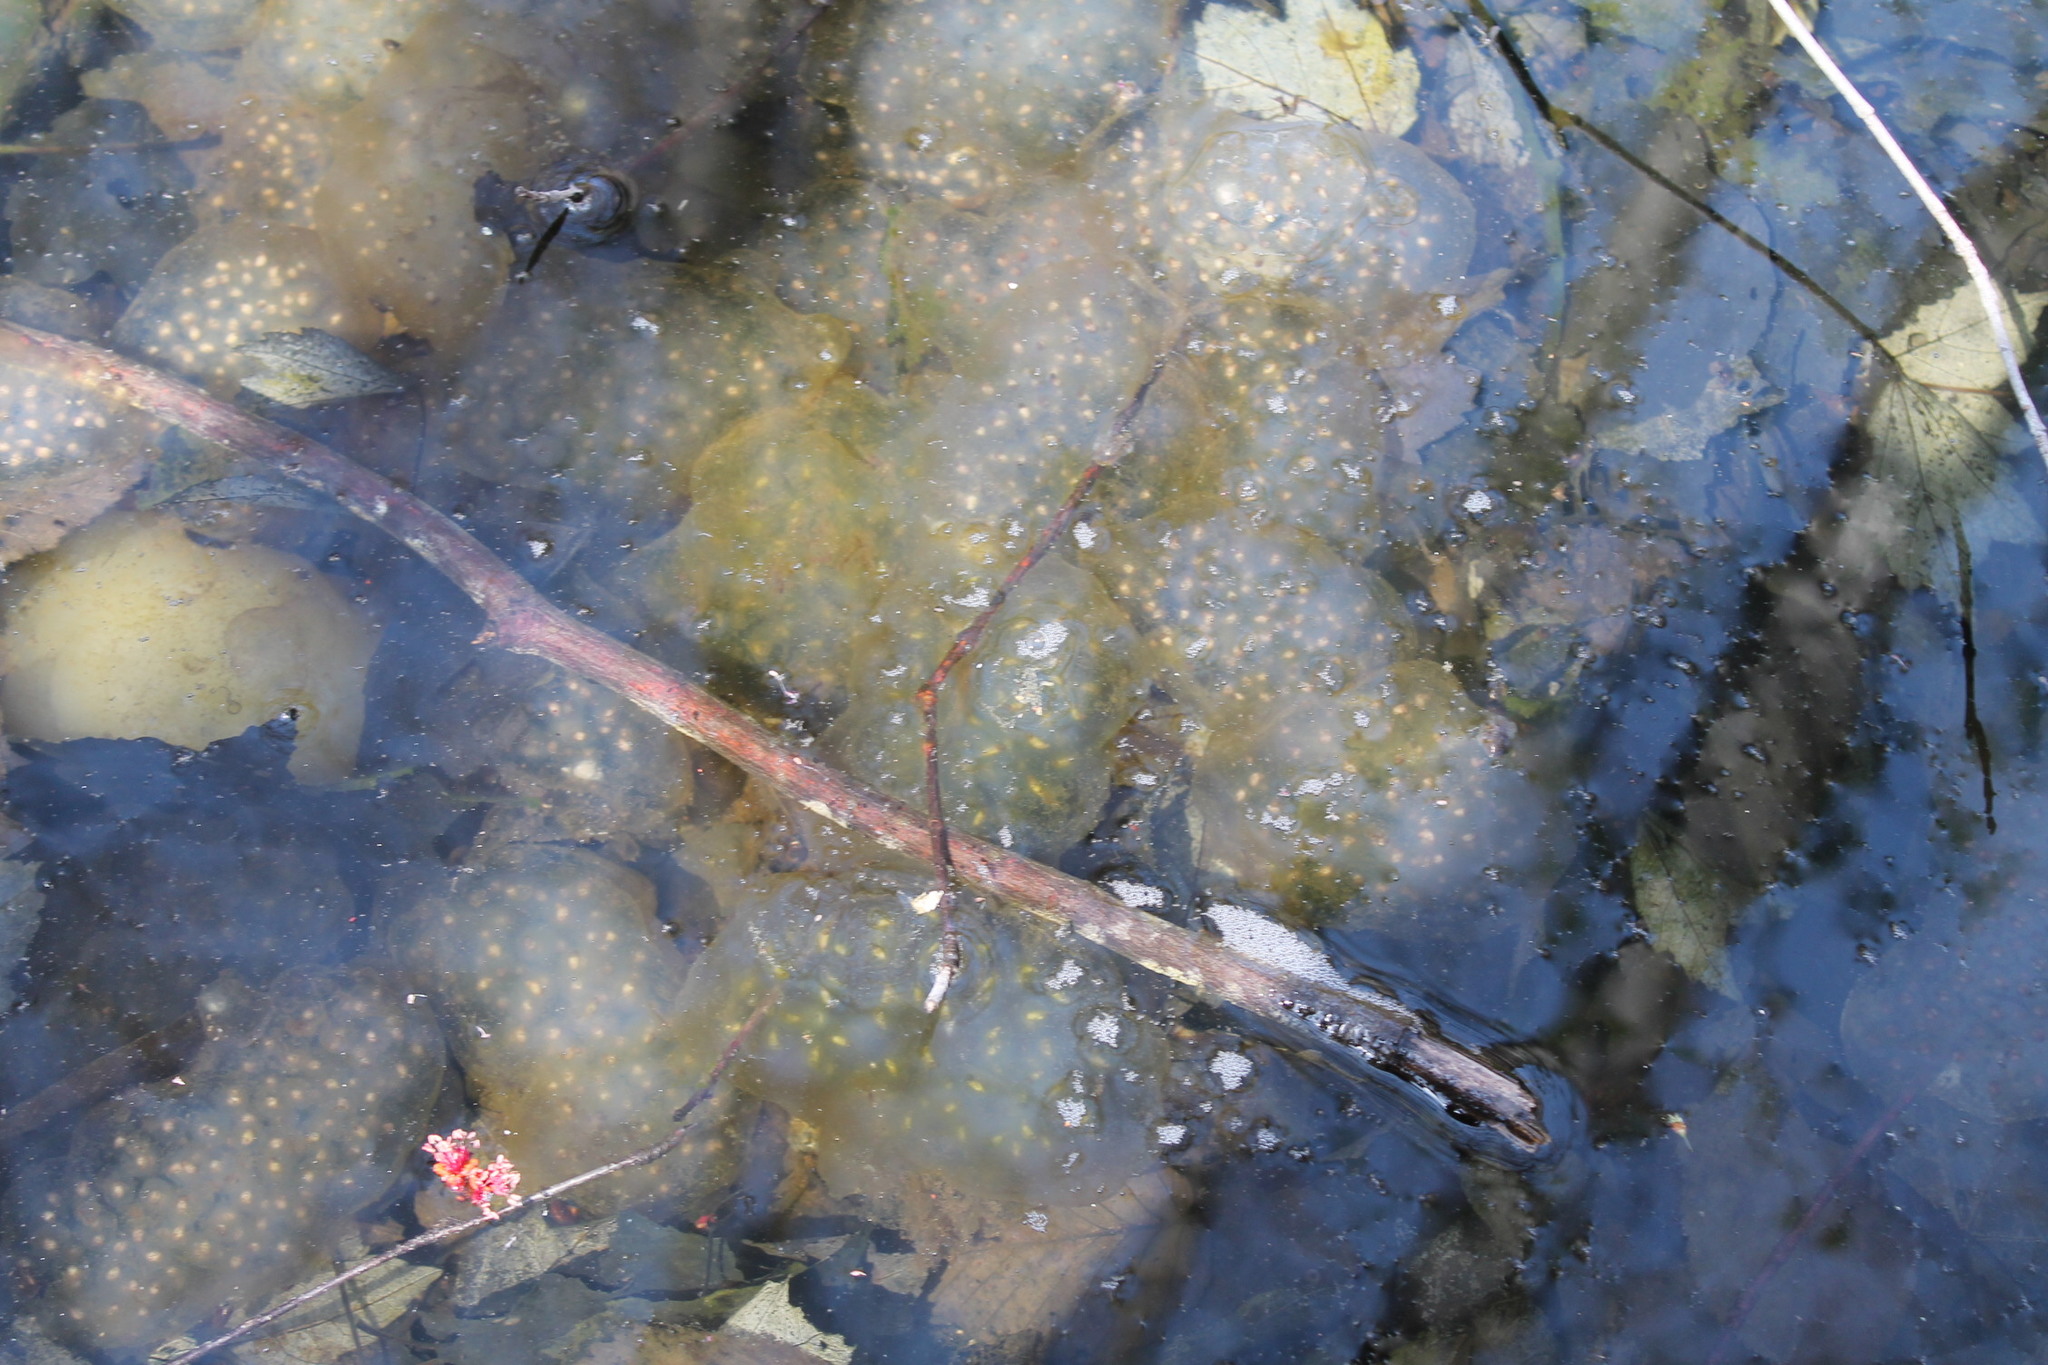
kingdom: Animalia
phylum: Chordata
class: Amphibia
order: Caudata
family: Ambystomatidae
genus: Ambystoma
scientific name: Ambystoma maculatum
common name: Spotted salamander
